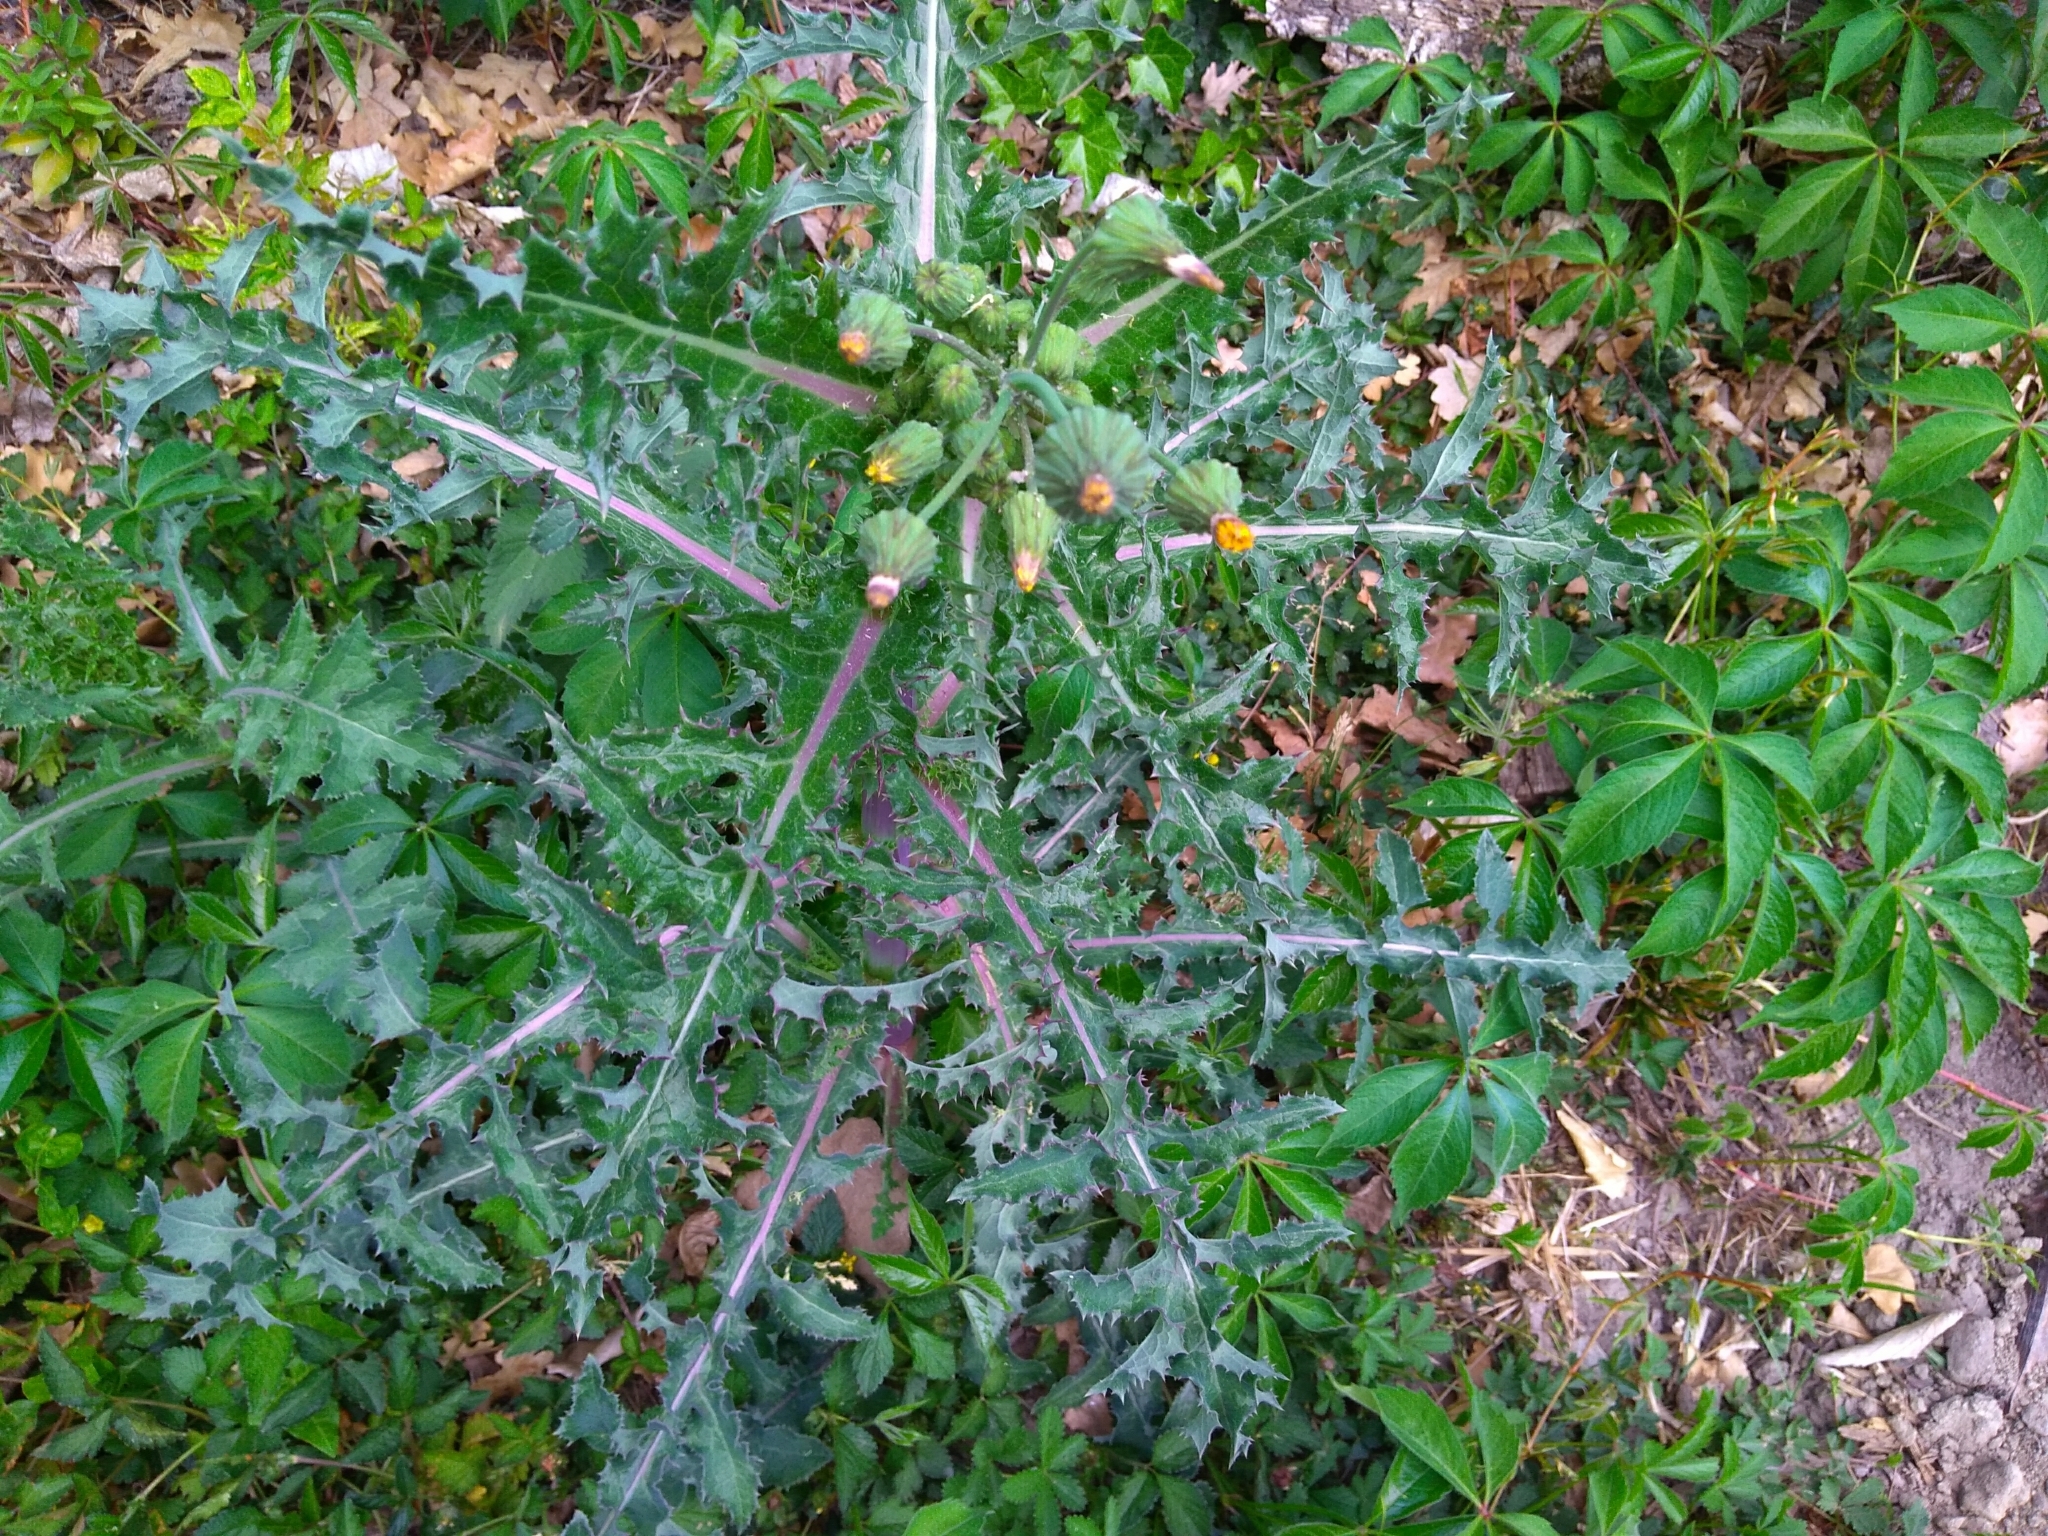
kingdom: Plantae
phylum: Tracheophyta
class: Magnoliopsida
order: Asterales
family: Asteraceae
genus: Sonchus
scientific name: Sonchus asper
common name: Prickly sow-thistle
